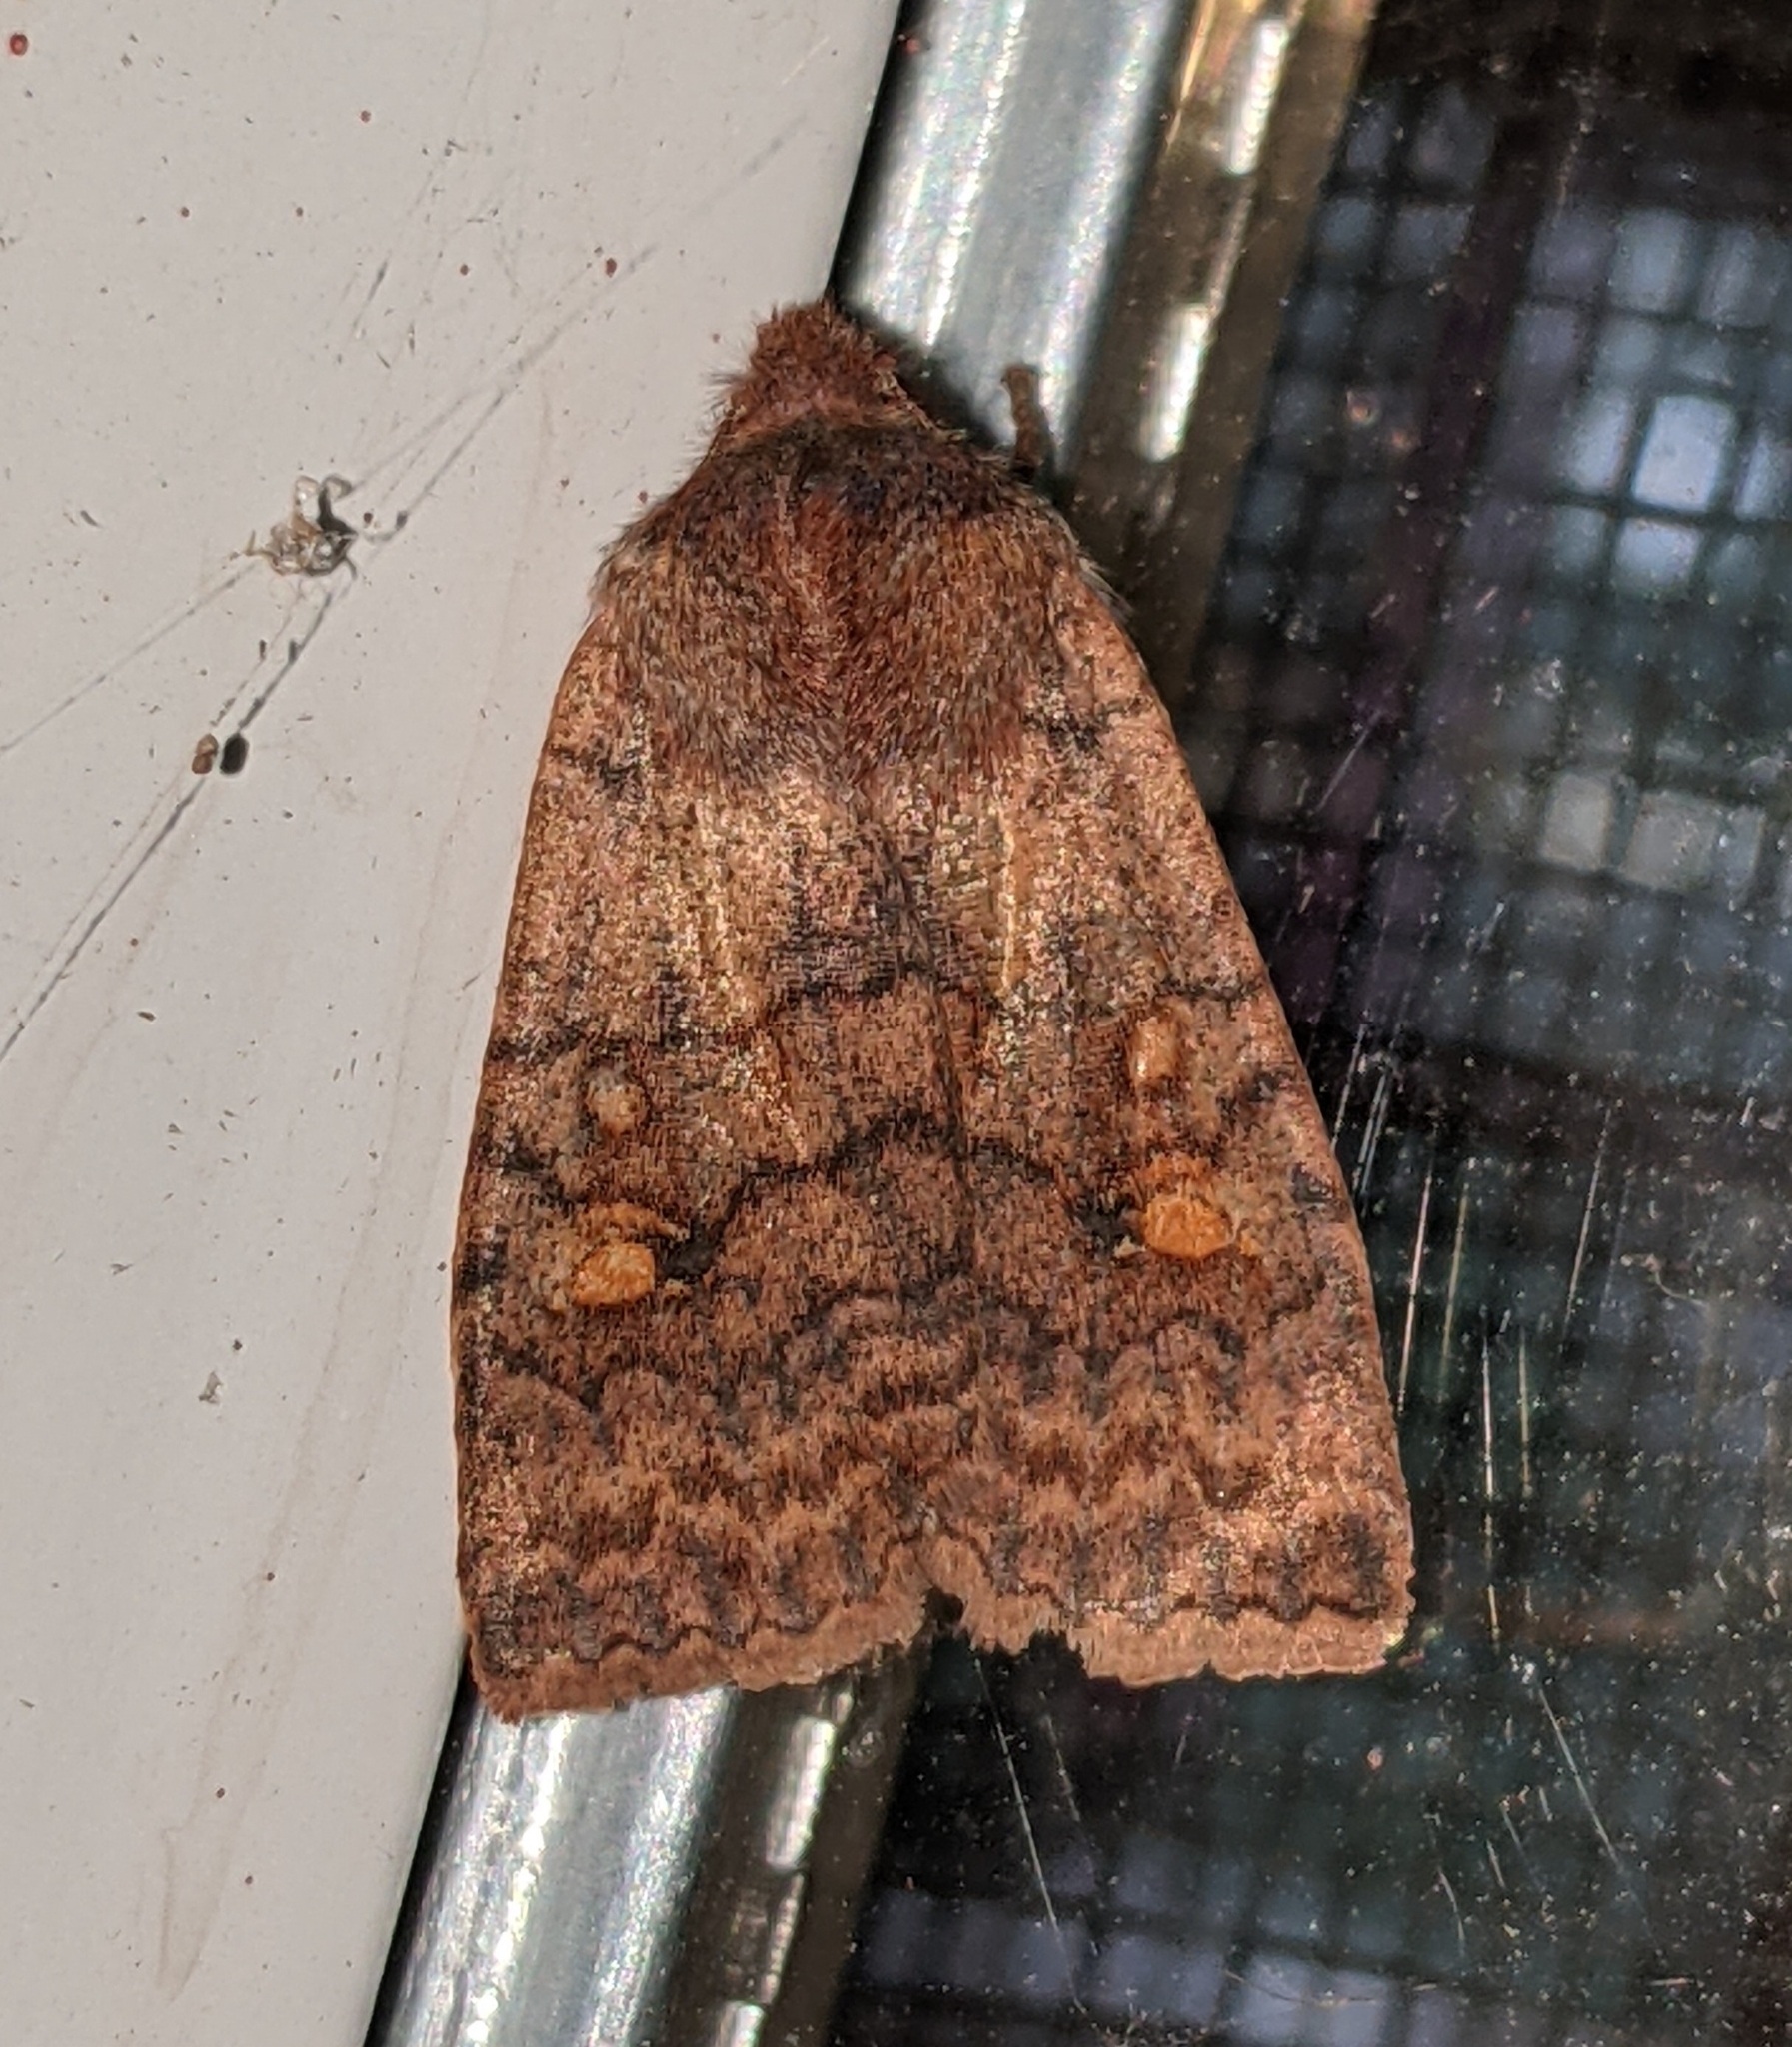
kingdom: Animalia
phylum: Arthropoda
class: Insecta
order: Lepidoptera
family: Noctuidae
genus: Eupsilia
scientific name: Eupsilia tristigmata
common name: Three-spotted sallow
